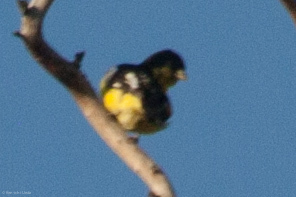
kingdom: Animalia
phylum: Chordata
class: Aves
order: Passeriformes
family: Fringillidae
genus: Spinus
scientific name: Spinus psaltria
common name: Lesser goldfinch
